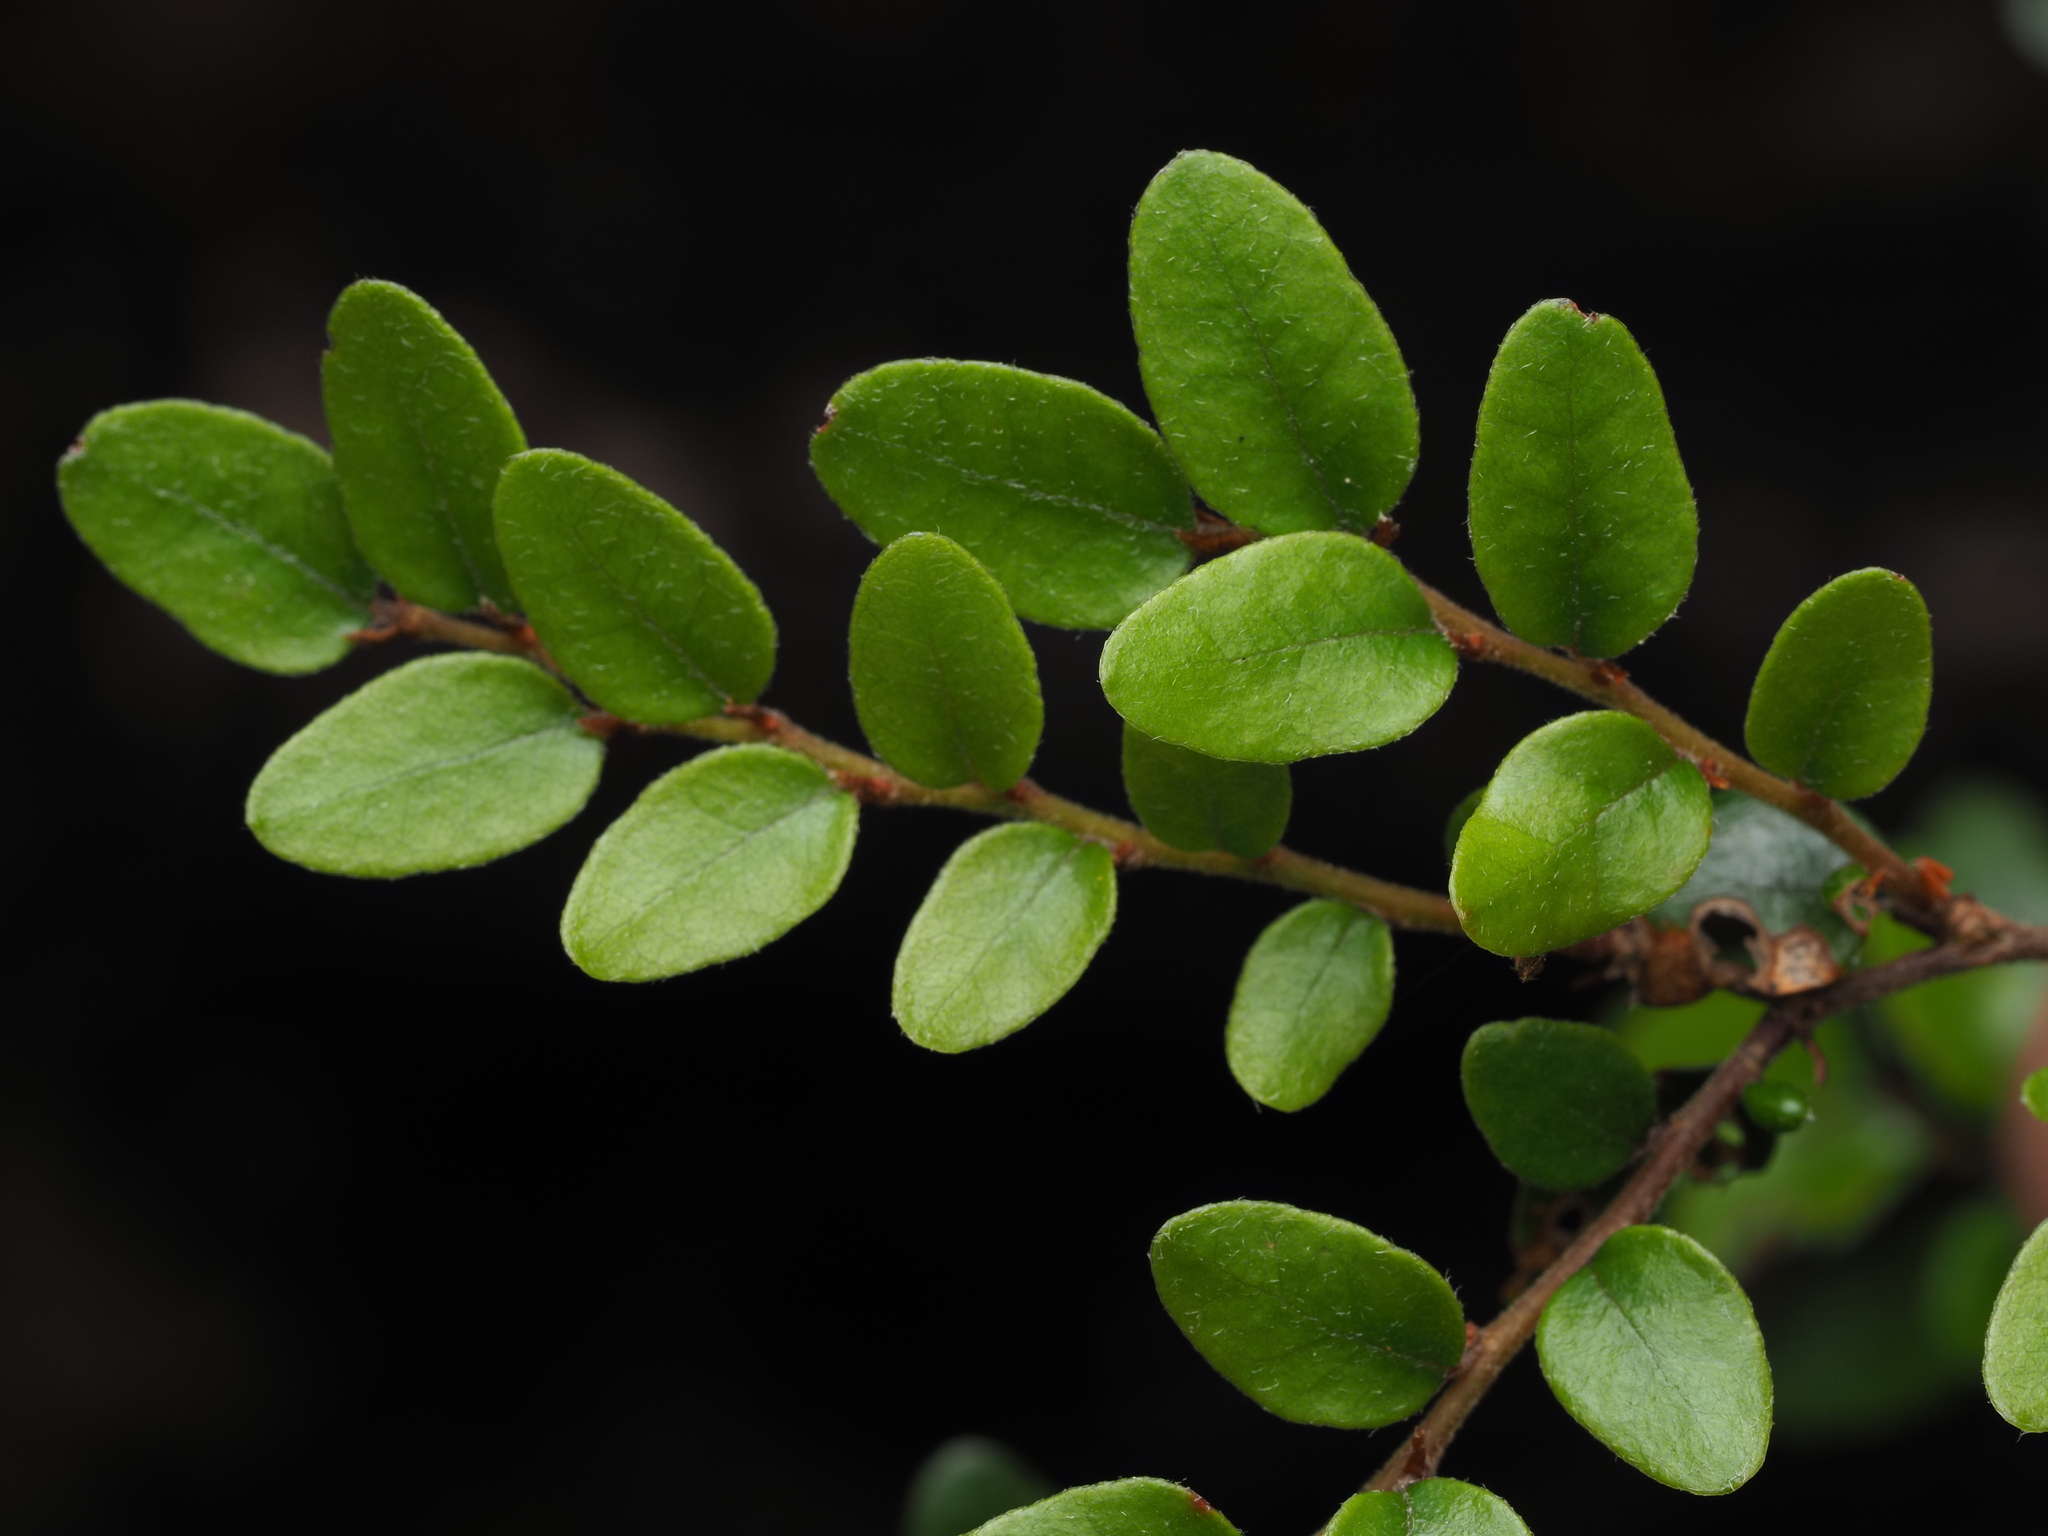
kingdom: Plantae
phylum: Tracheophyta
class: Magnoliopsida
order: Fagales
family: Nothofagaceae
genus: Nothofagus
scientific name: Nothofagus cliffortioides
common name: Mountain beech
